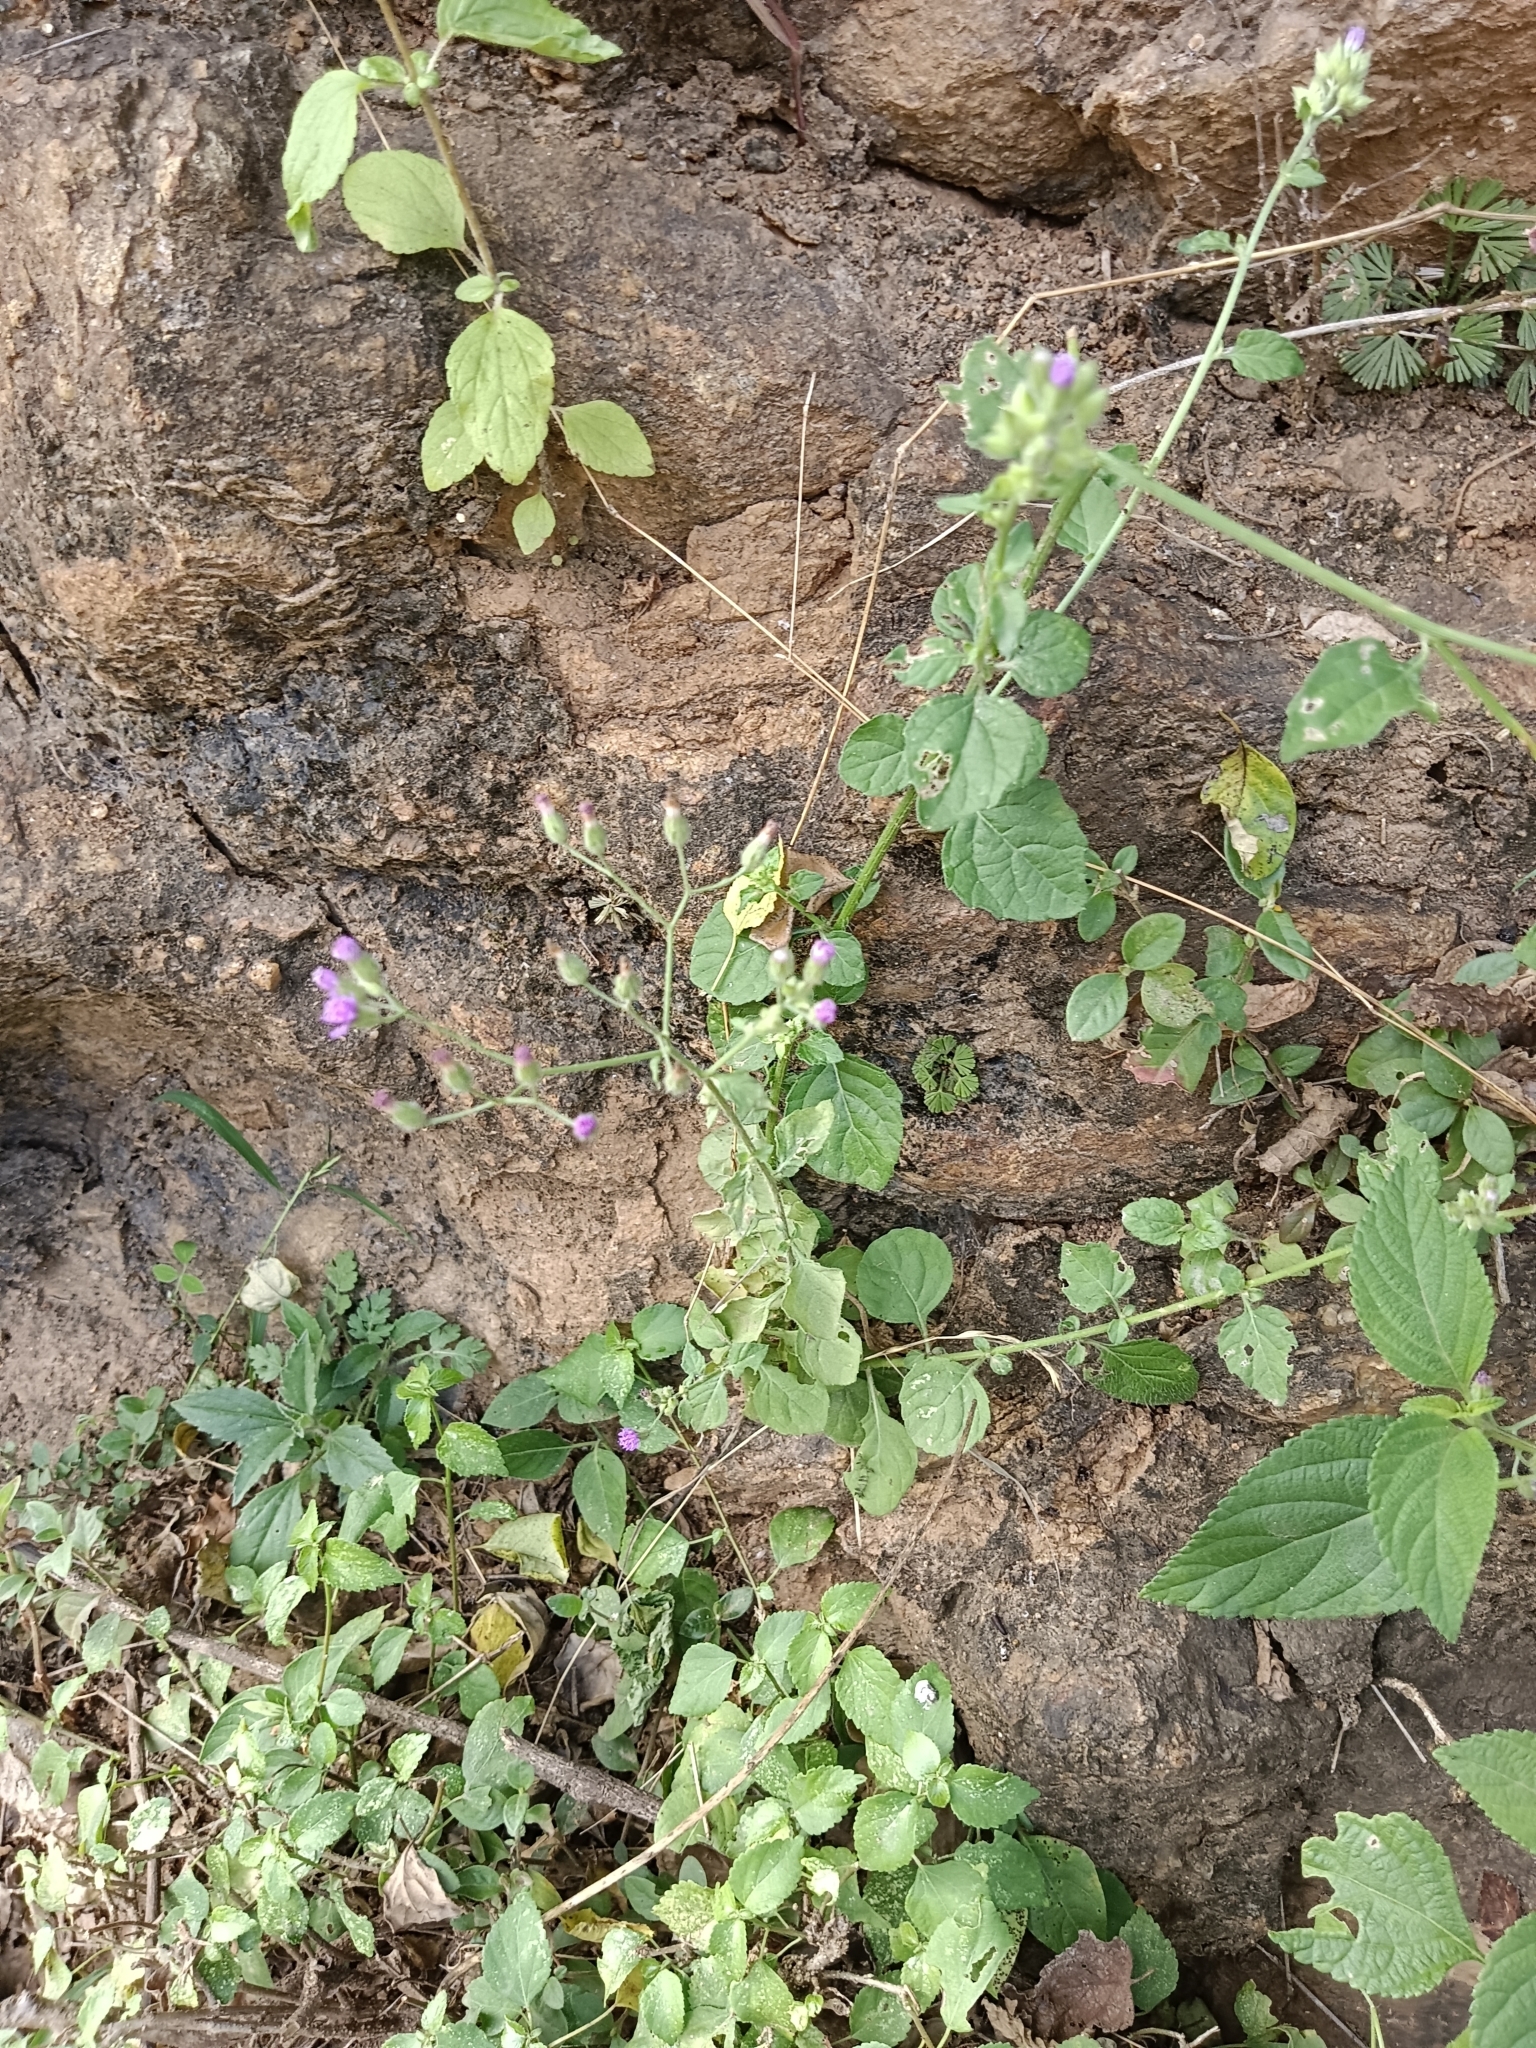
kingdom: Plantae
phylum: Tracheophyta
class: Magnoliopsida
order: Asterales
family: Asteraceae
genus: Cyanthillium
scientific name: Cyanthillium cinereum
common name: Little ironweed
